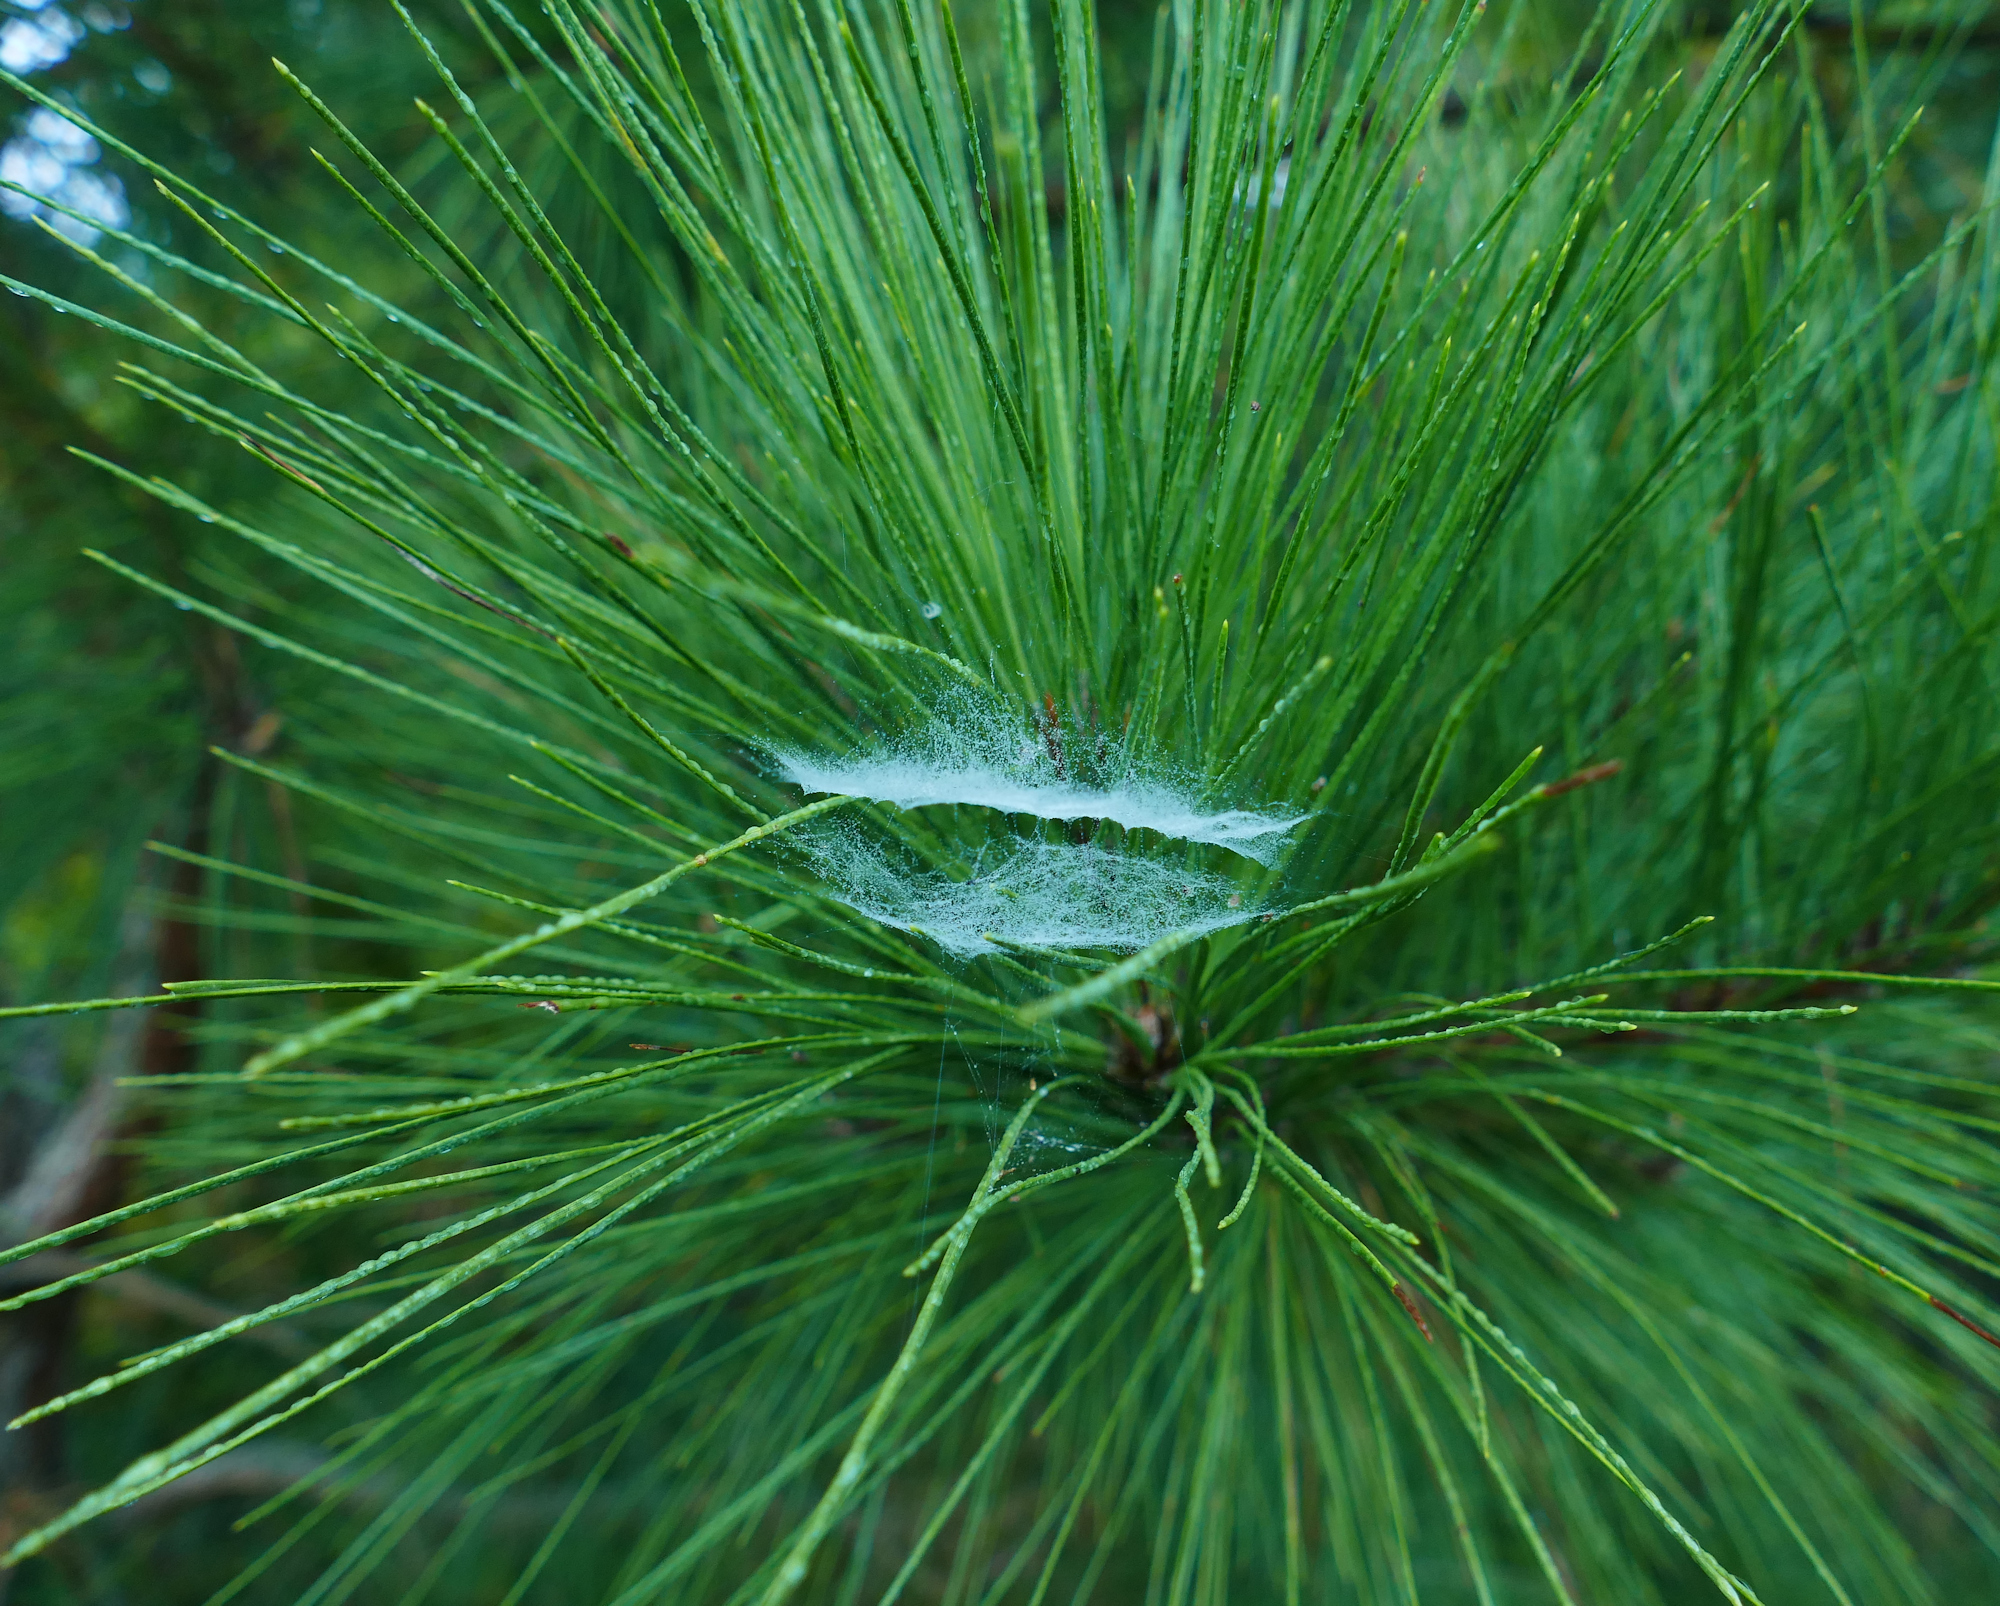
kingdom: Animalia
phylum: Arthropoda
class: Arachnida
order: Araneae
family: Linyphiidae
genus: Frontinella
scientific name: Frontinella pyramitela
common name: Bowl-and-doily spider
